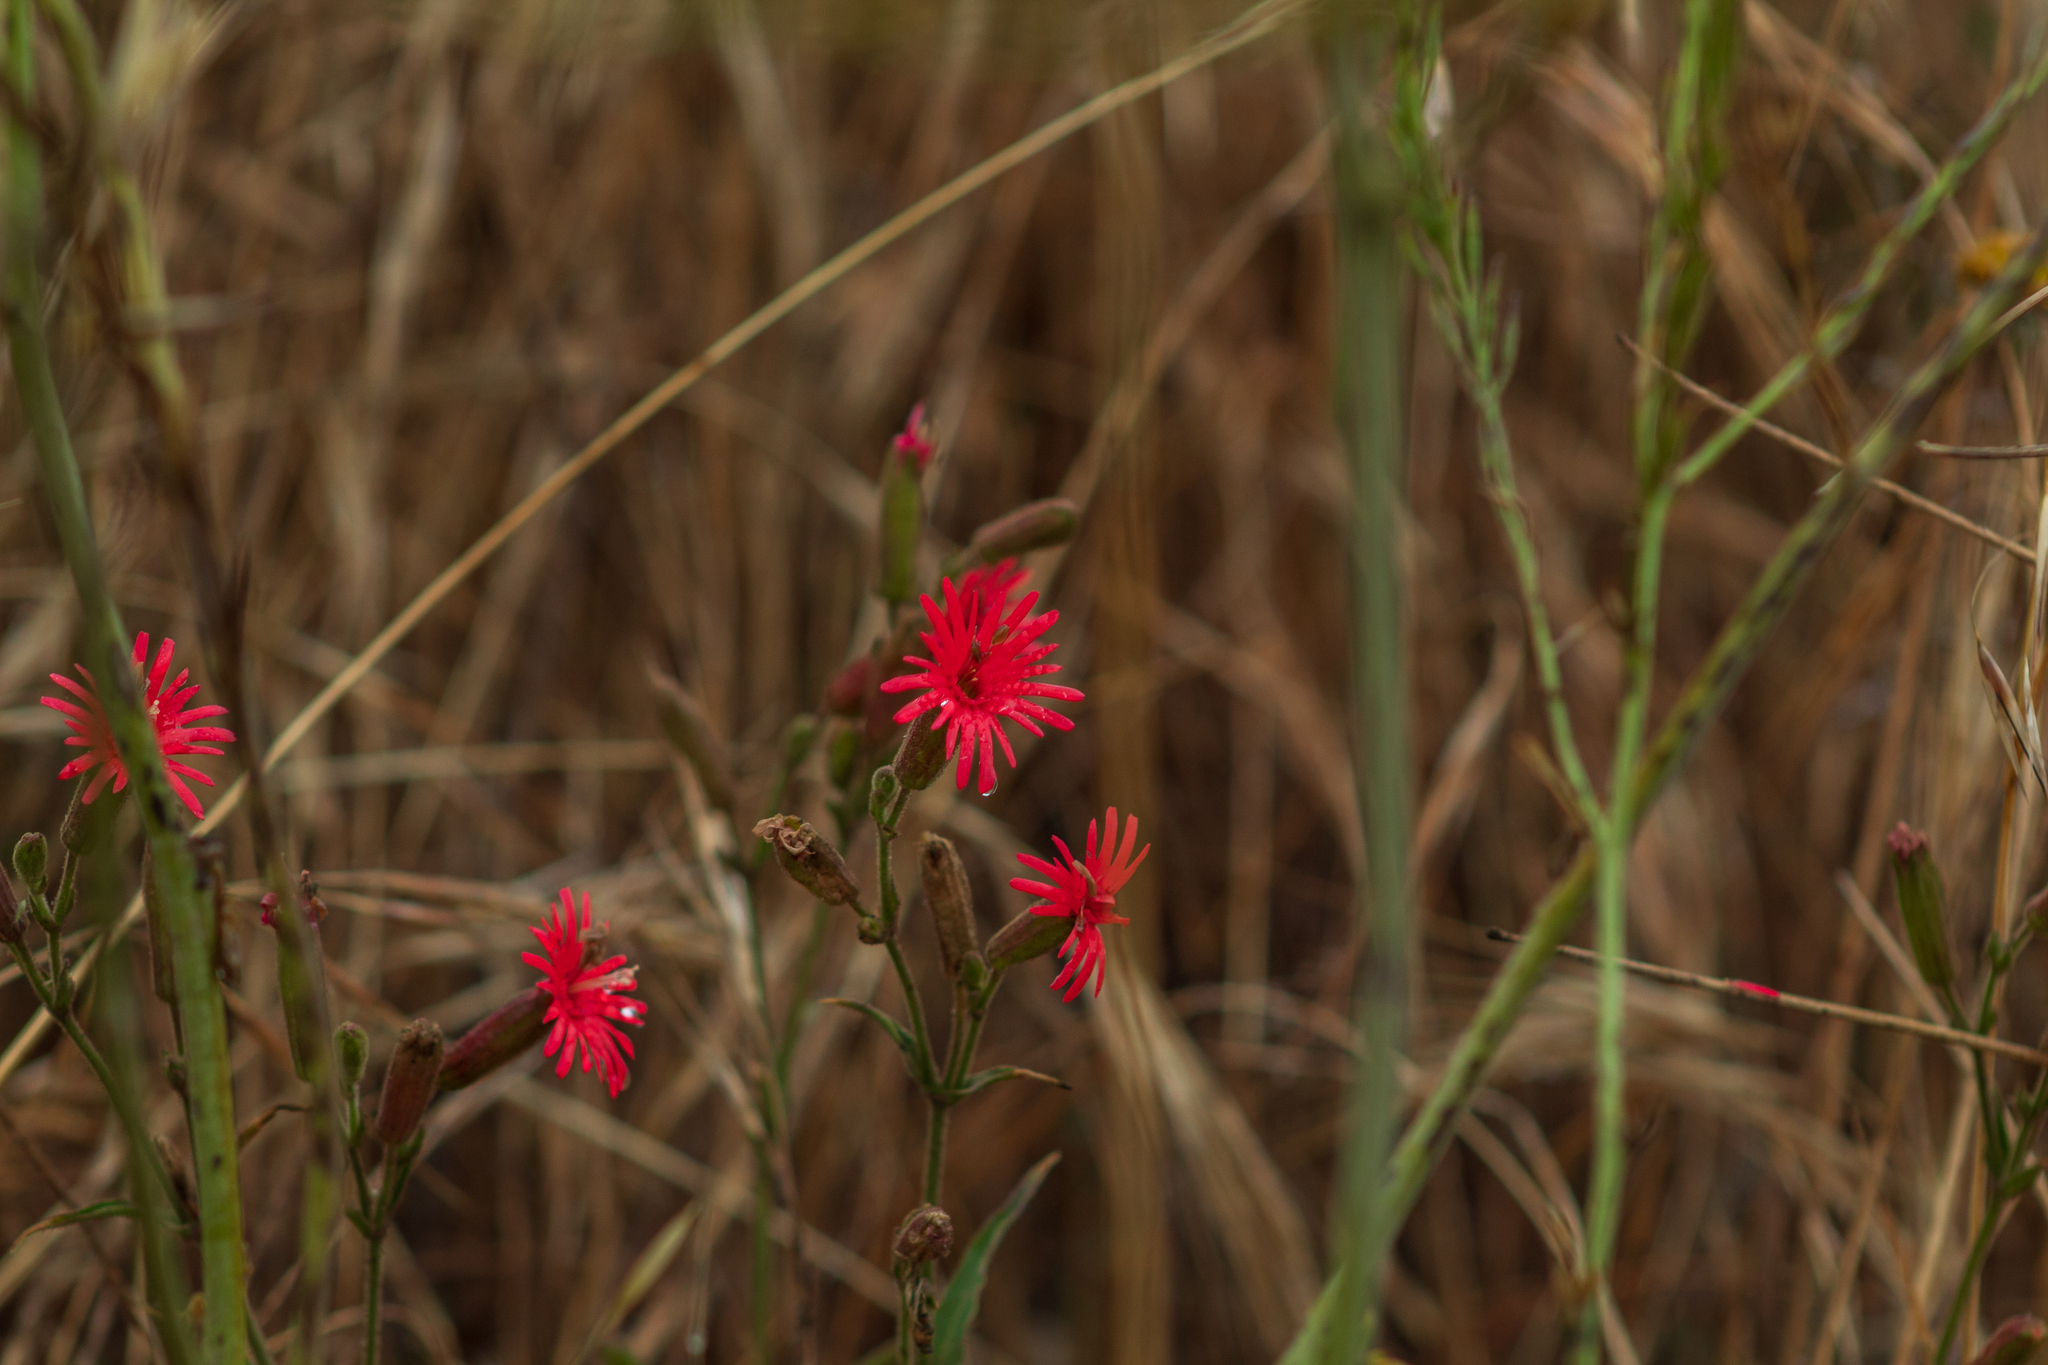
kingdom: Plantae
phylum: Tracheophyta
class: Magnoliopsida
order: Caryophyllales
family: Caryophyllaceae
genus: Silene
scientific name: Silene laciniata
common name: Indian-pink
